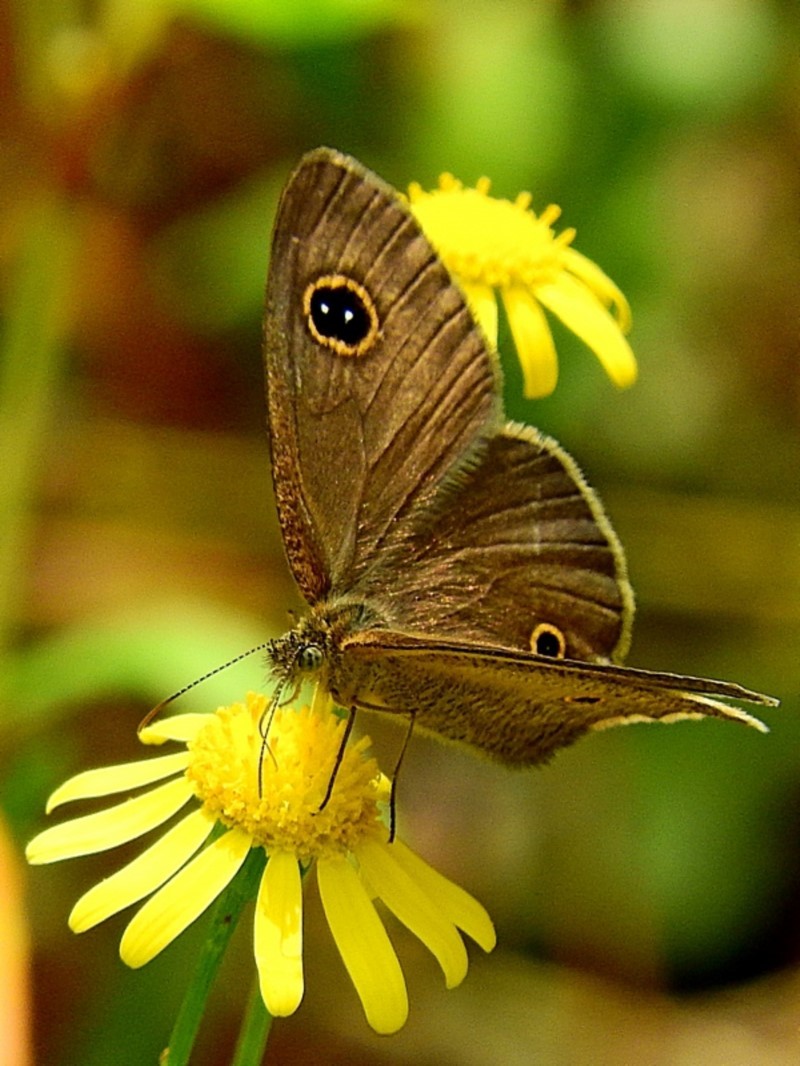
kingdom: Animalia
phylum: Arthropoda
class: Insecta
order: Lepidoptera
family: Nymphalidae
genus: Ypthima
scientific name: Ypthima arctous
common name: Dusky knight
